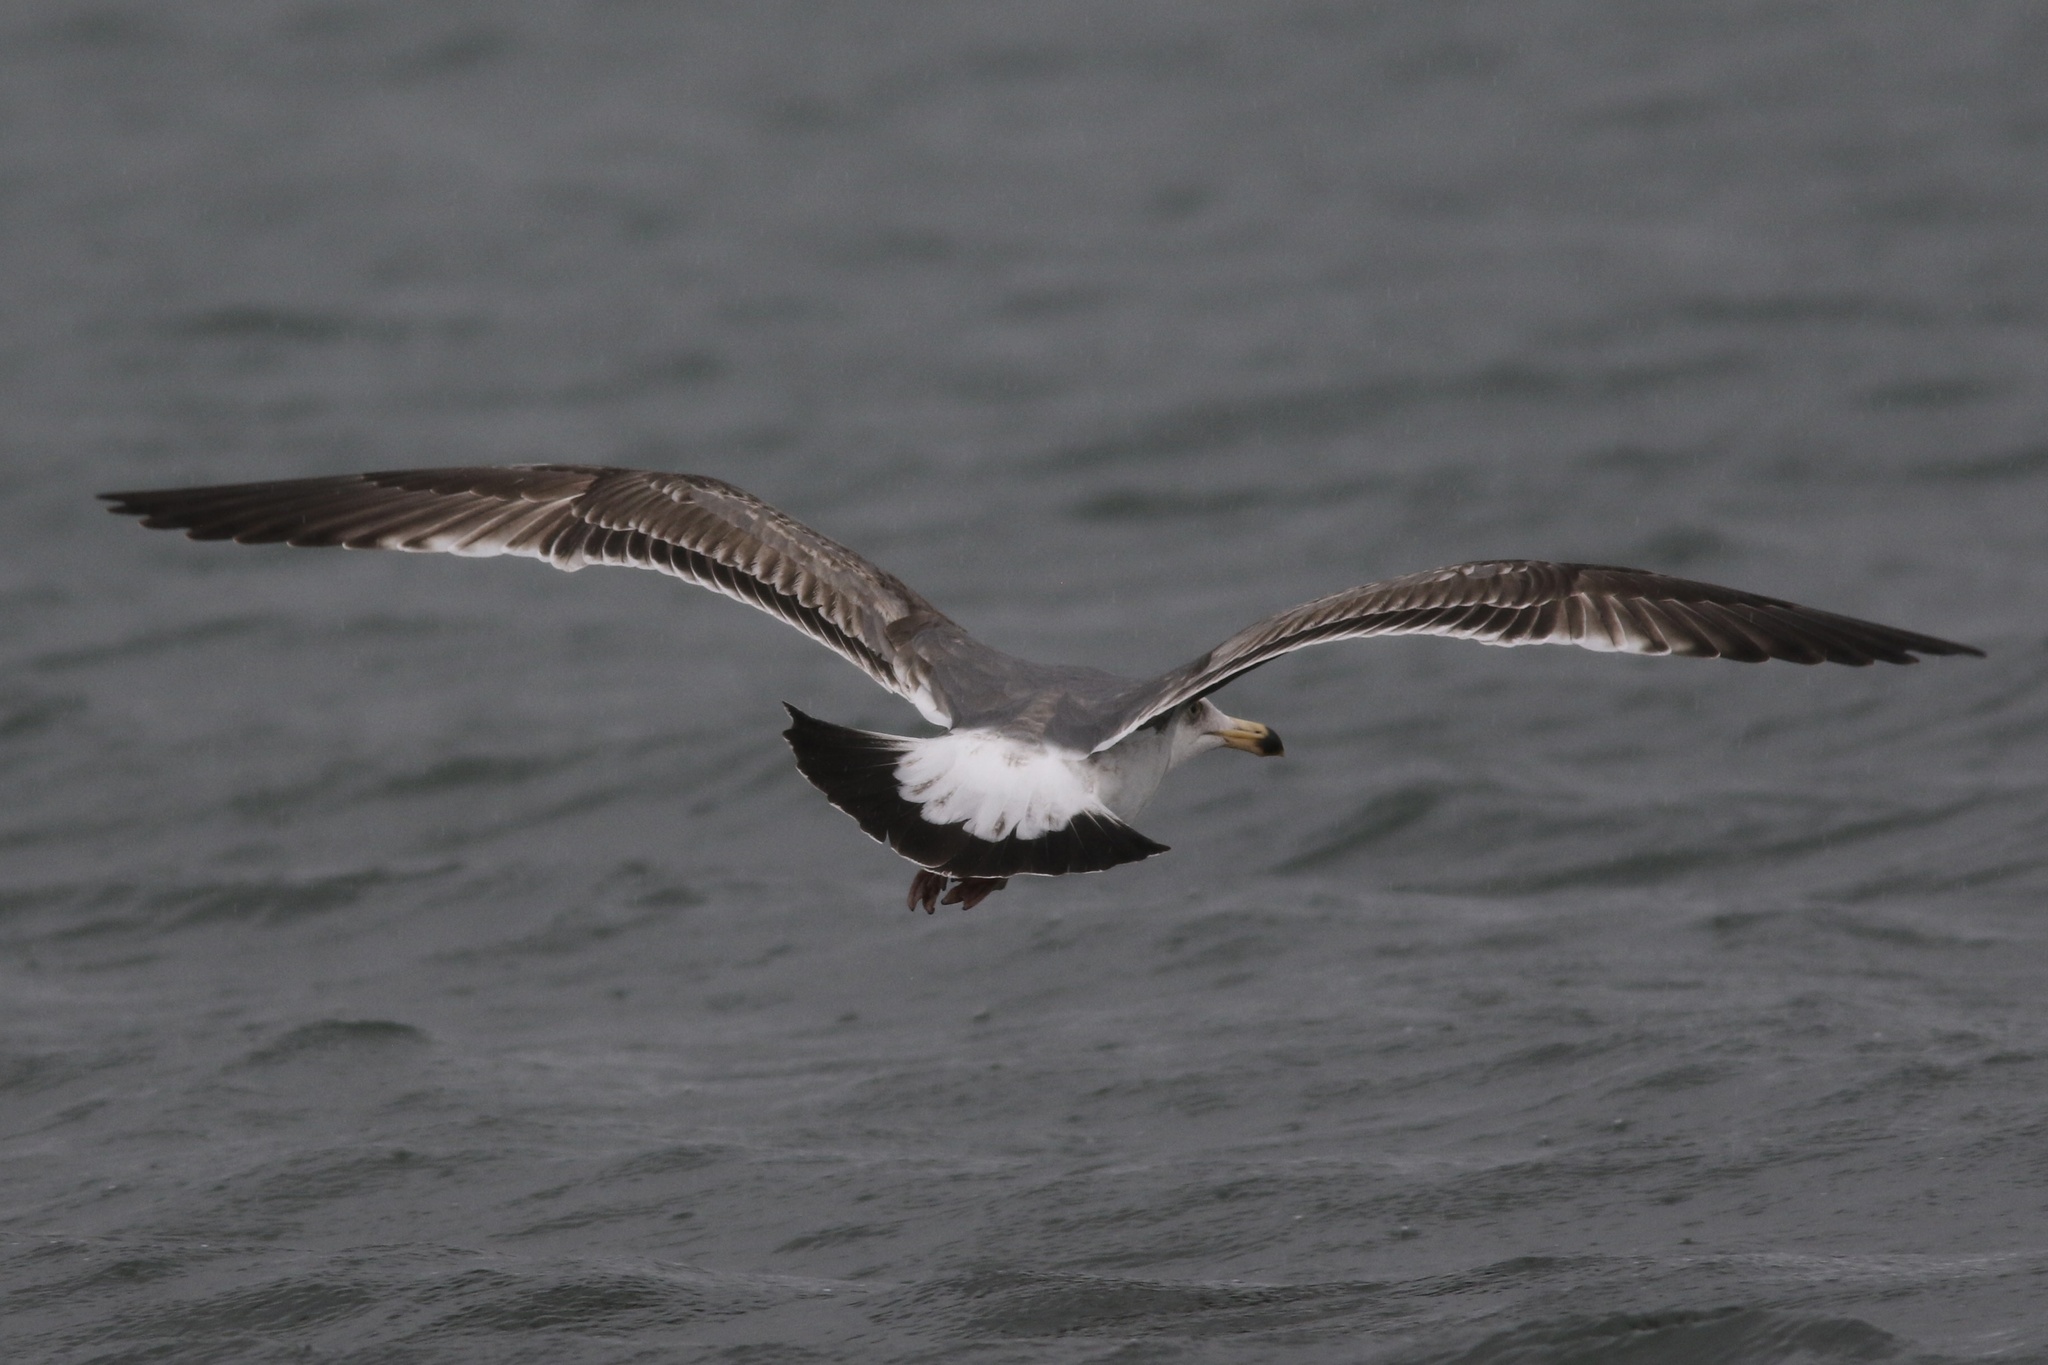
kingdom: Animalia
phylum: Chordata
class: Aves
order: Charadriiformes
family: Laridae
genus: Larus
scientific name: Larus occidentalis
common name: Western gull
